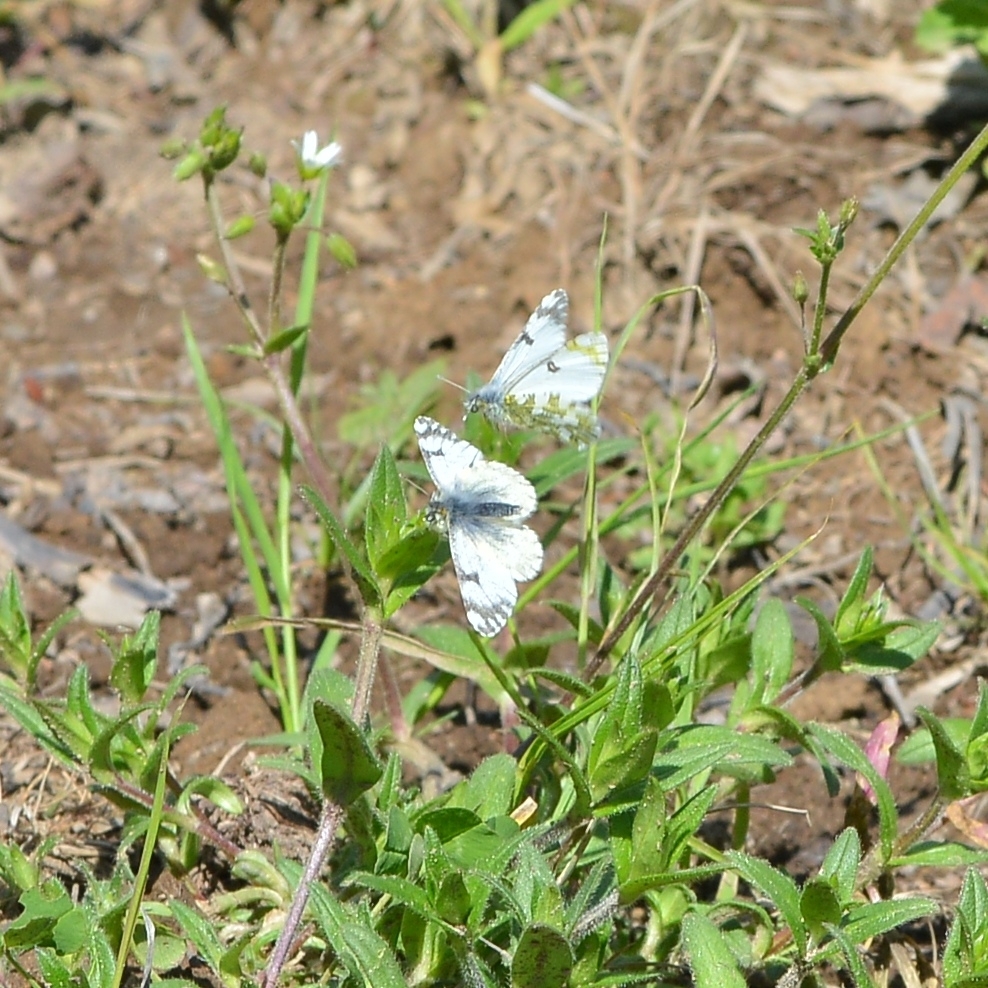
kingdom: Animalia
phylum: Arthropoda
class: Insecta
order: Lepidoptera
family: Pieridae
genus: Euchloe
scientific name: Euchloe ochracea
